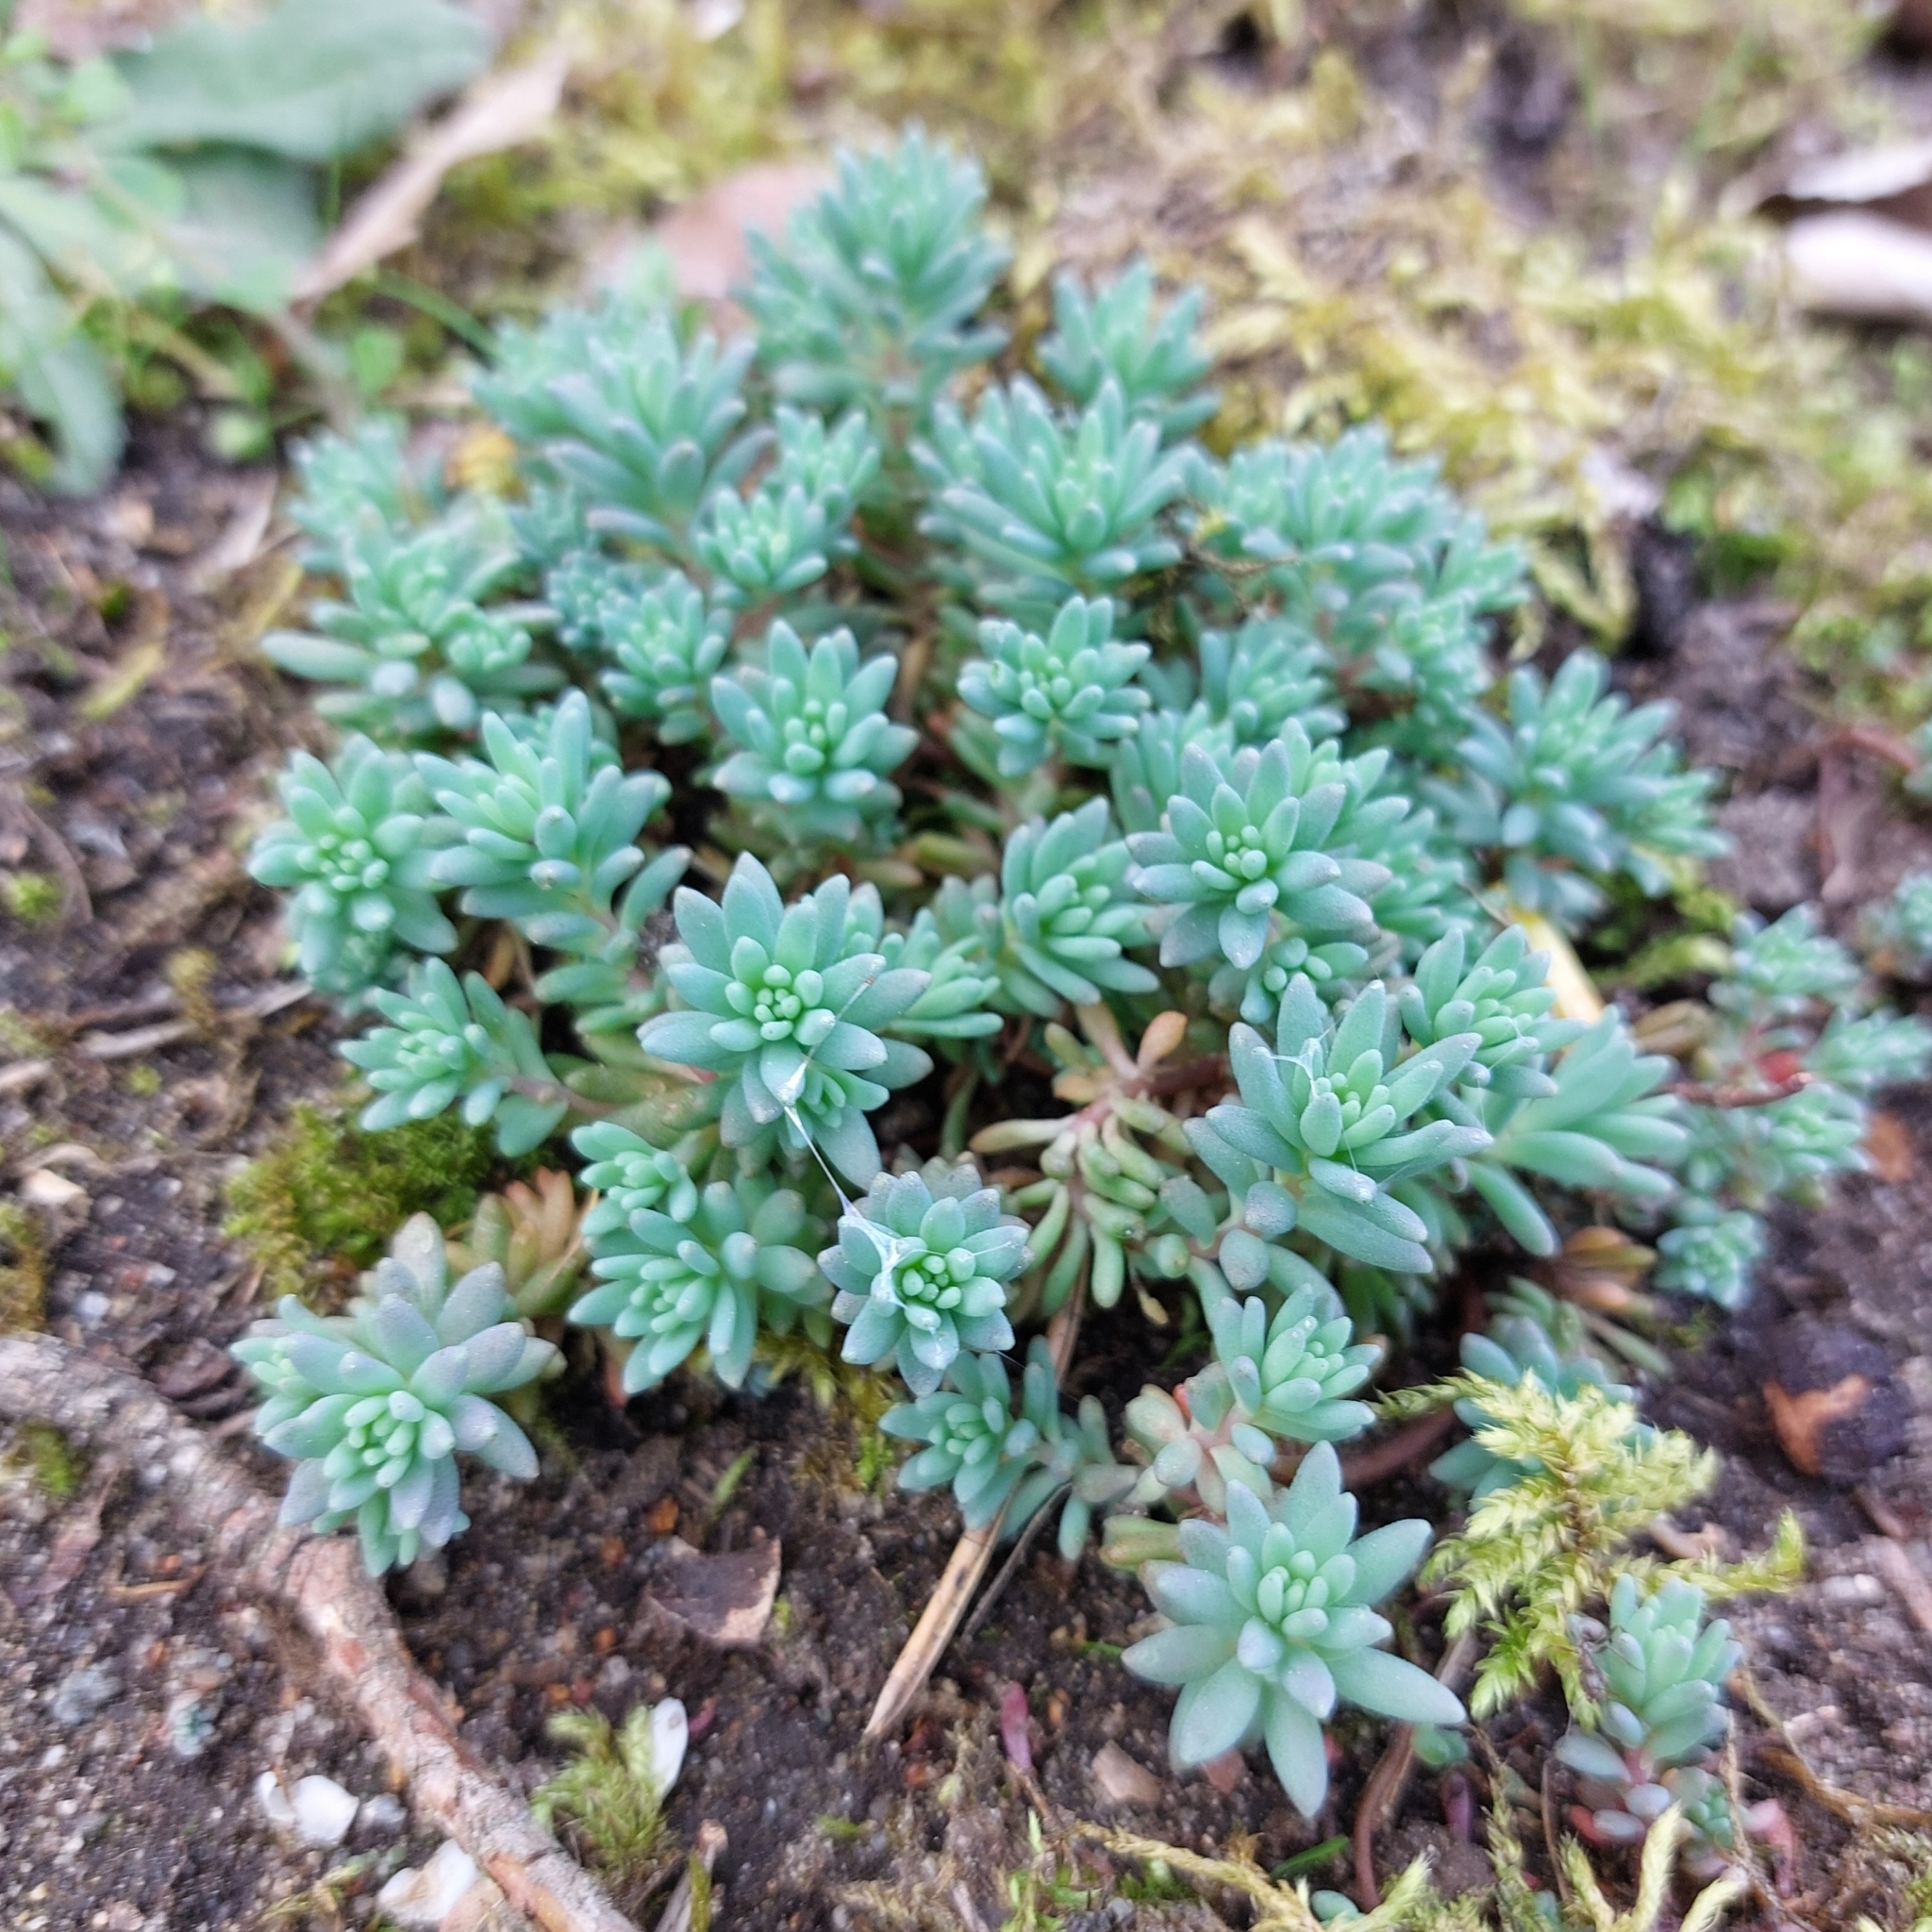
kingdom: Plantae
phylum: Tracheophyta
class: Magnoliopsida
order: Saxifragales
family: Crassulaceae
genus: Sedum
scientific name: Sedum hispanicum
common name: Spanish stonecrop
